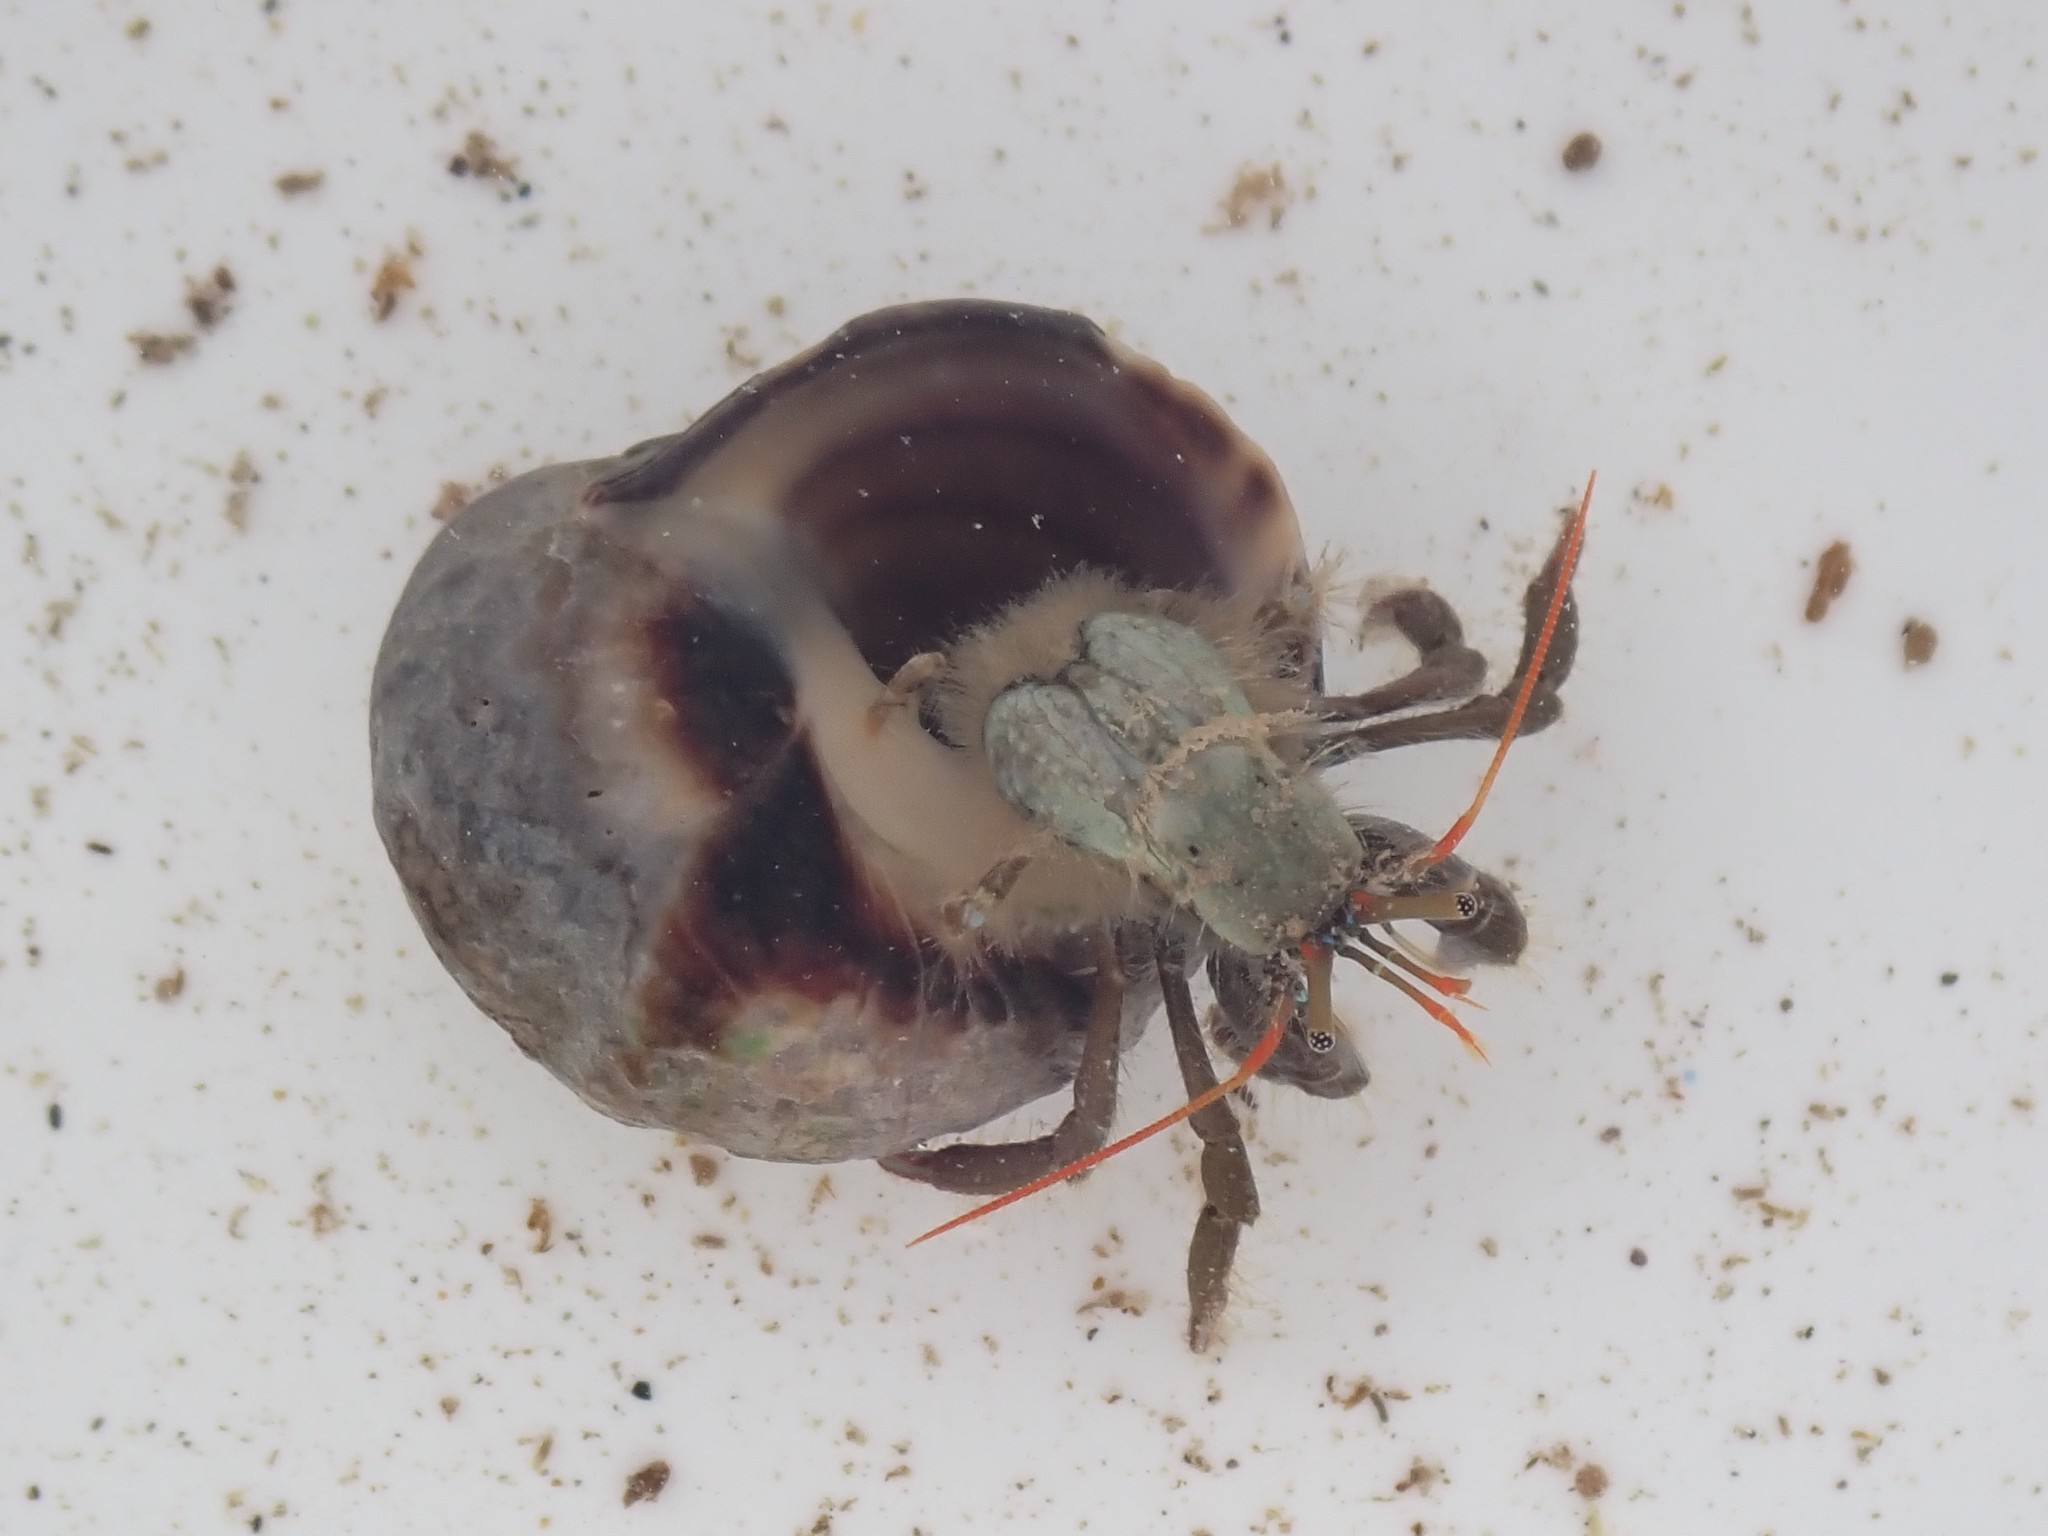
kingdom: Animalia
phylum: Arthropoda
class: Malacostraca
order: Decapoda
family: Diogenidae
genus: Clibanarius
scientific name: Clibanarius erythropus
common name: Hermit crab
